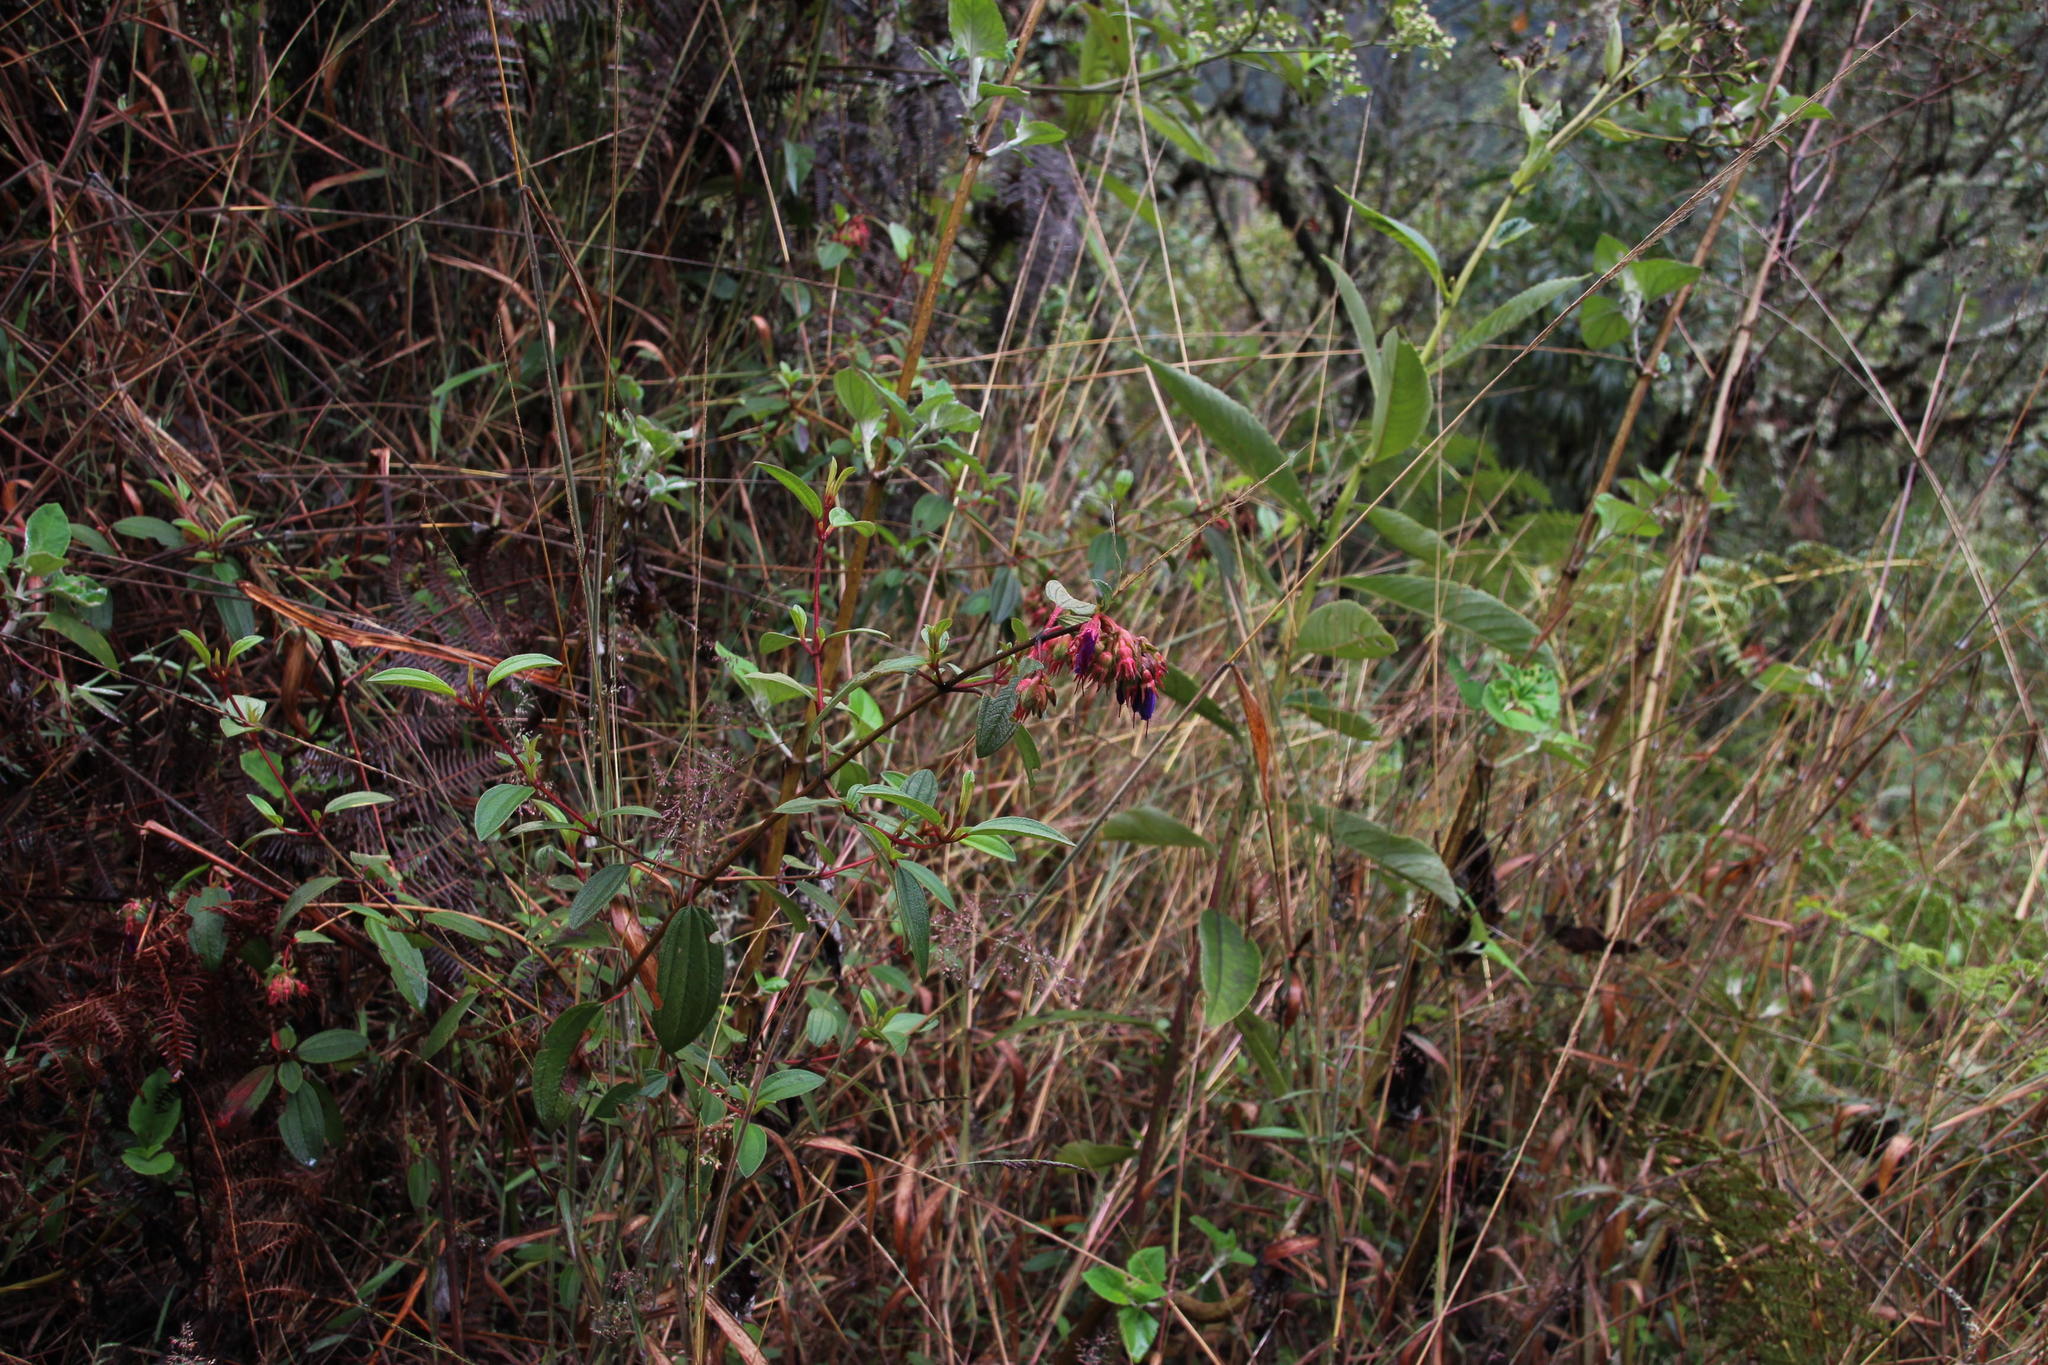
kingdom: Plantae
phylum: Tracheophyta
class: Magnoliopsida
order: Myrtales
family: Melastomataceae
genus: Brachyotum
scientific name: Brachyotum grisebachii
